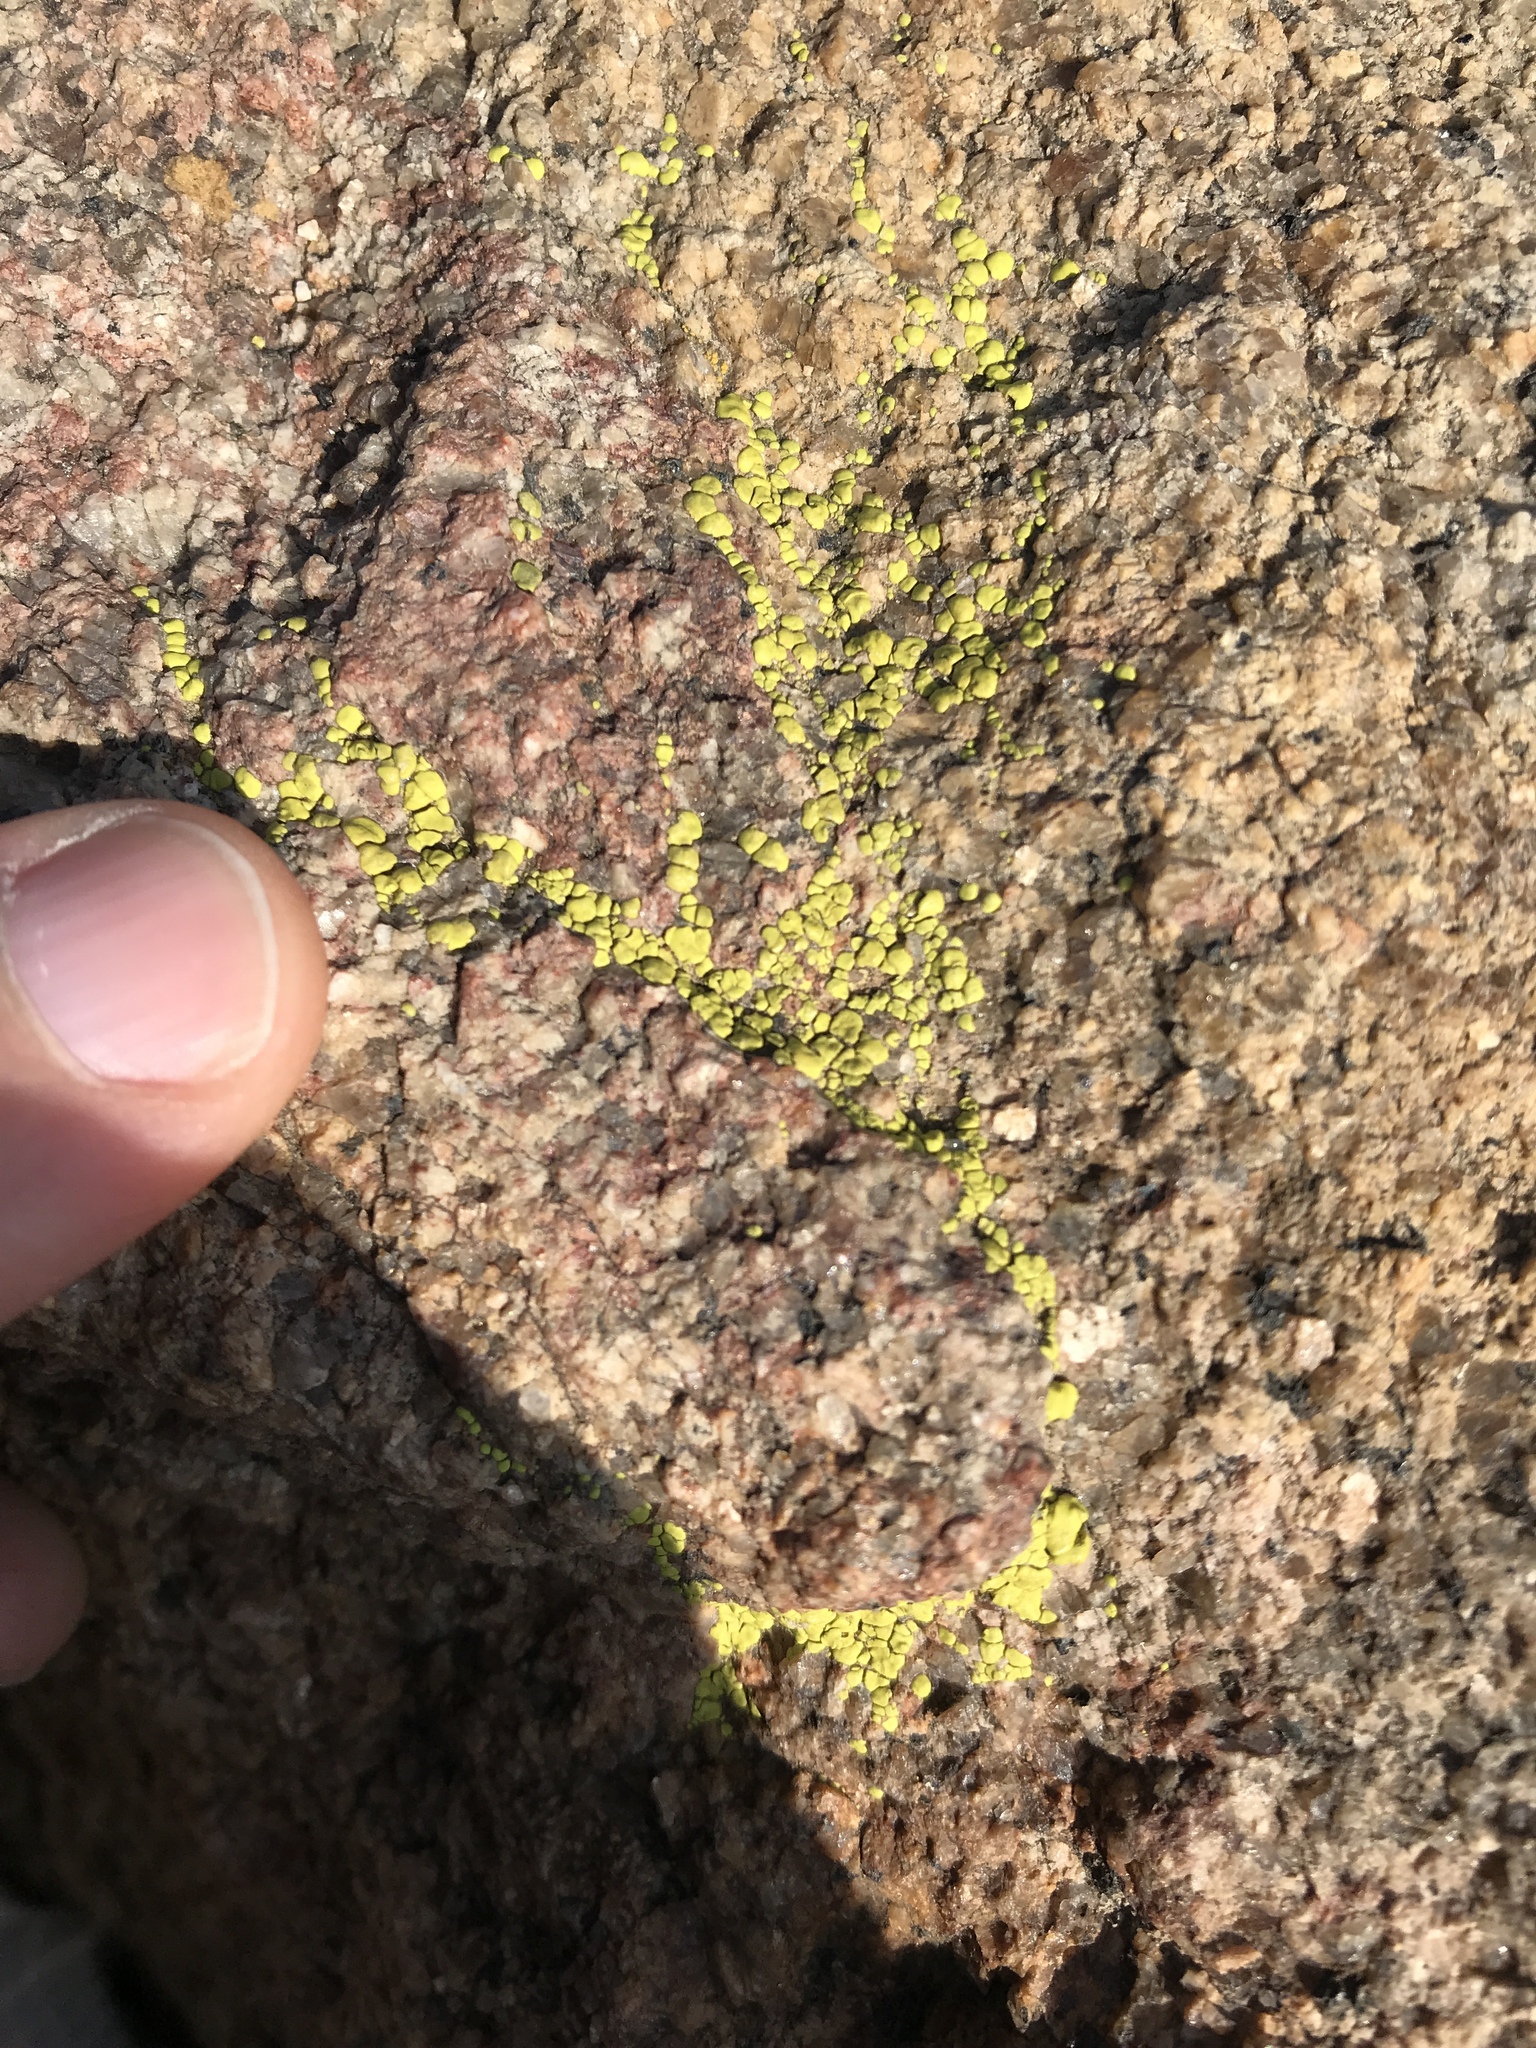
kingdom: Fungi
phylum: Ascomycota
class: Lecanoromycetes
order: Acarosporales
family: Acarosporaceae
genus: Acarospora
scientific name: Acarospora socialis
